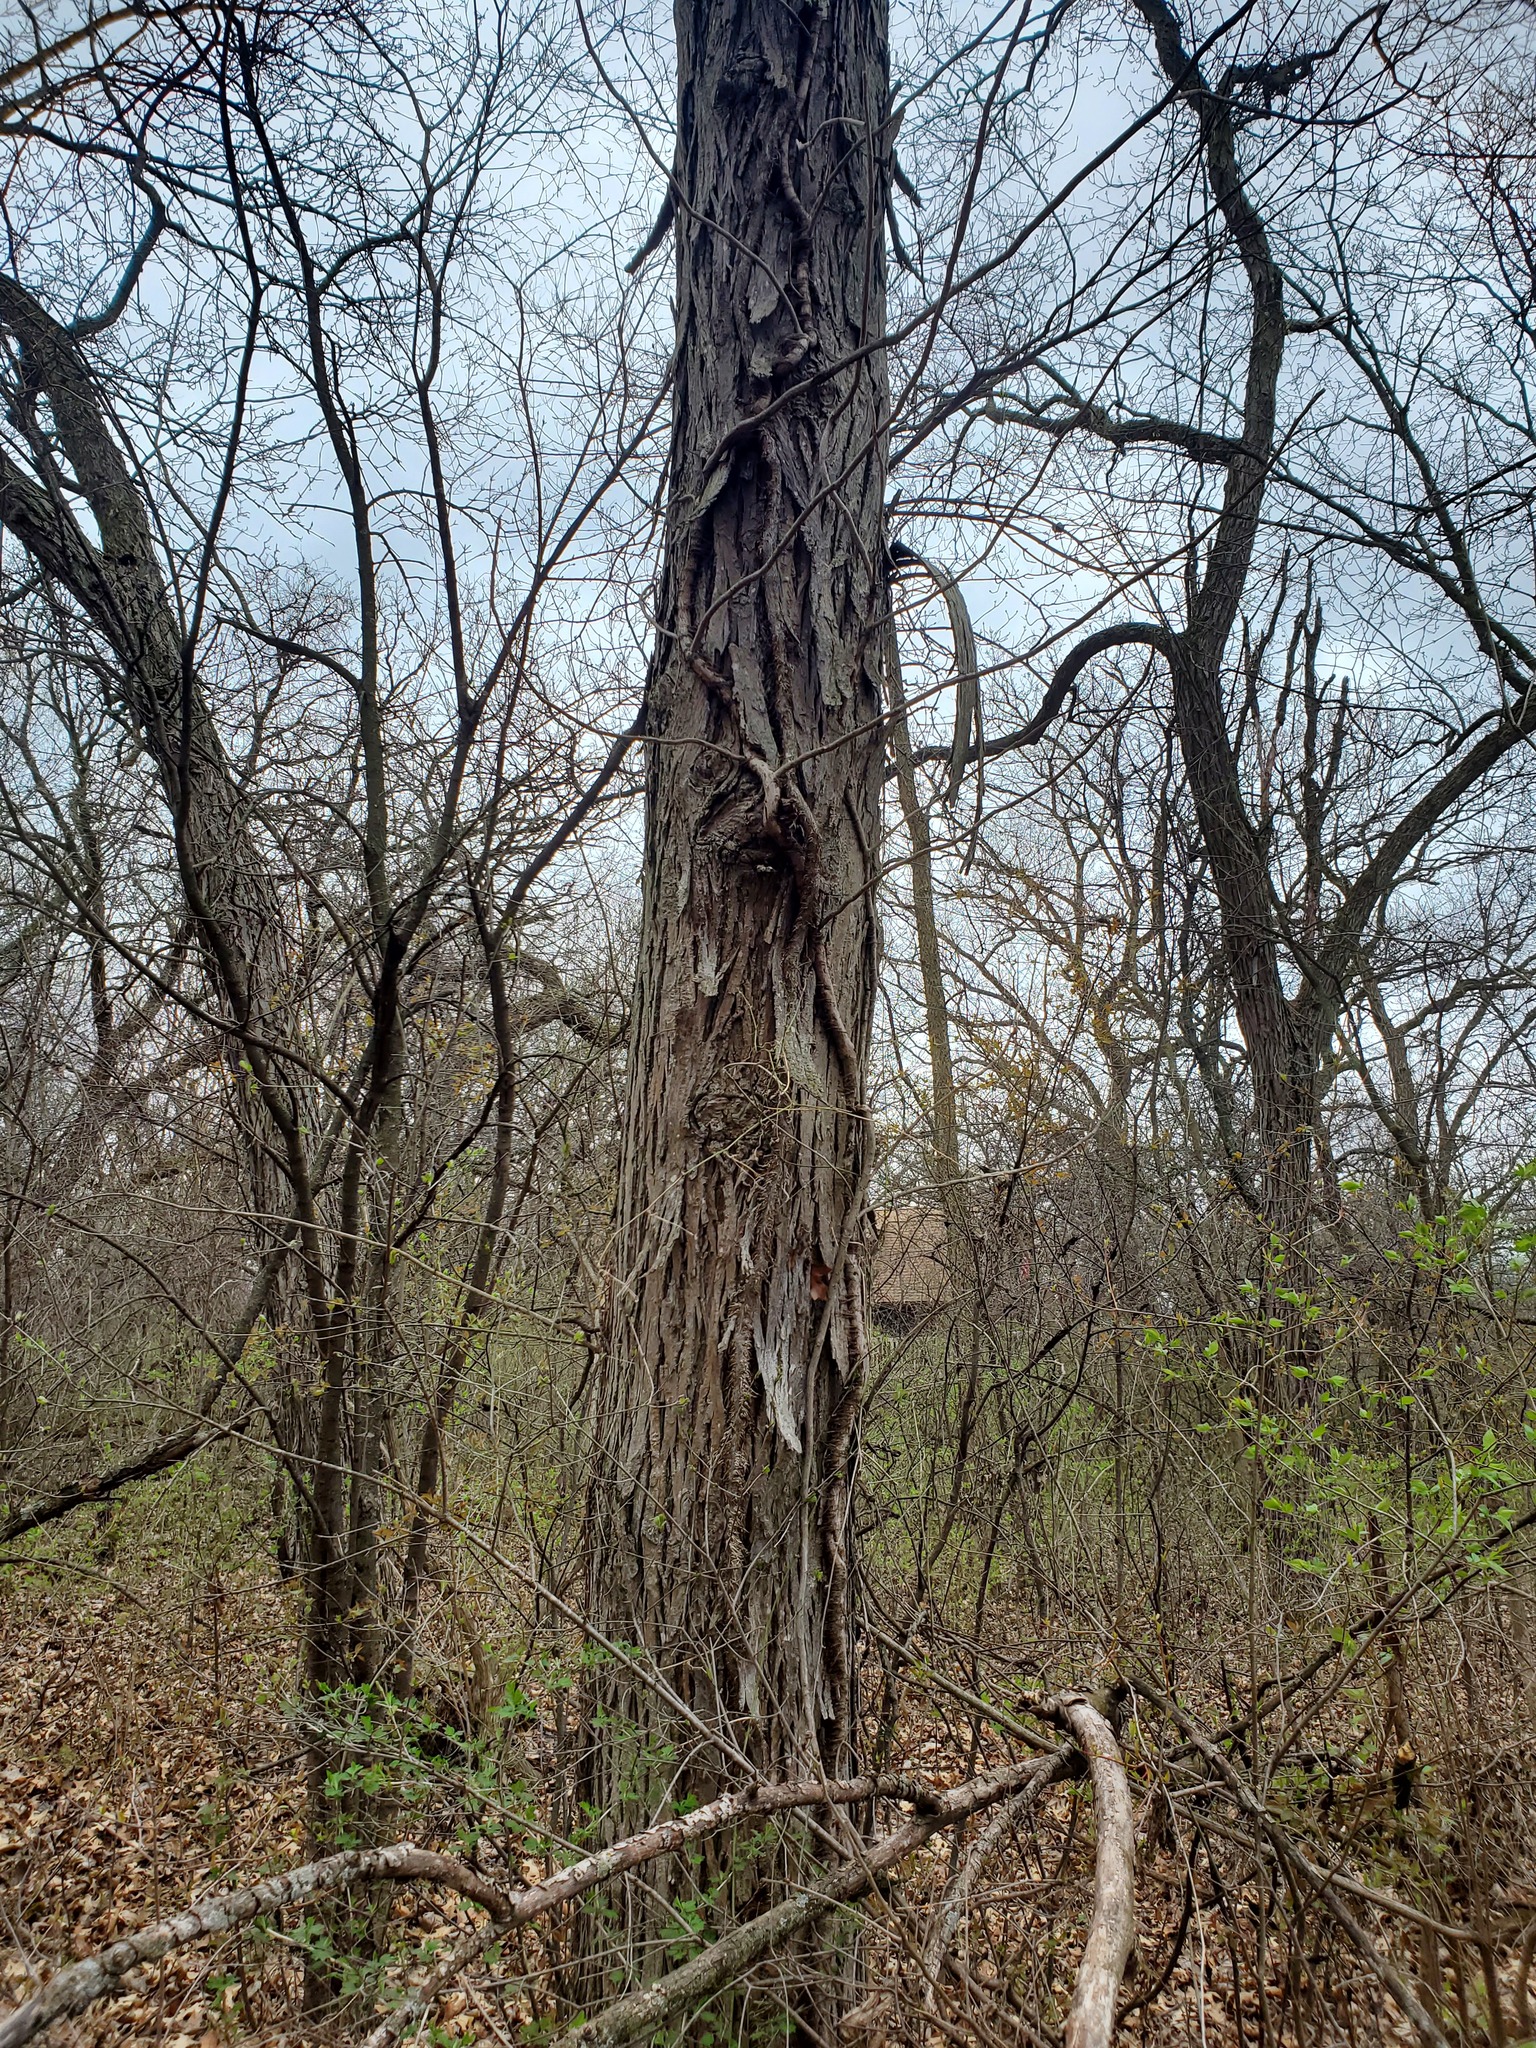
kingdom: Plantae
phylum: Tracheophyta
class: Magnoliopsida
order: Fagales
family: Juglandaceae
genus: Carya
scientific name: Carya ovata
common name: Shagbark hickory
